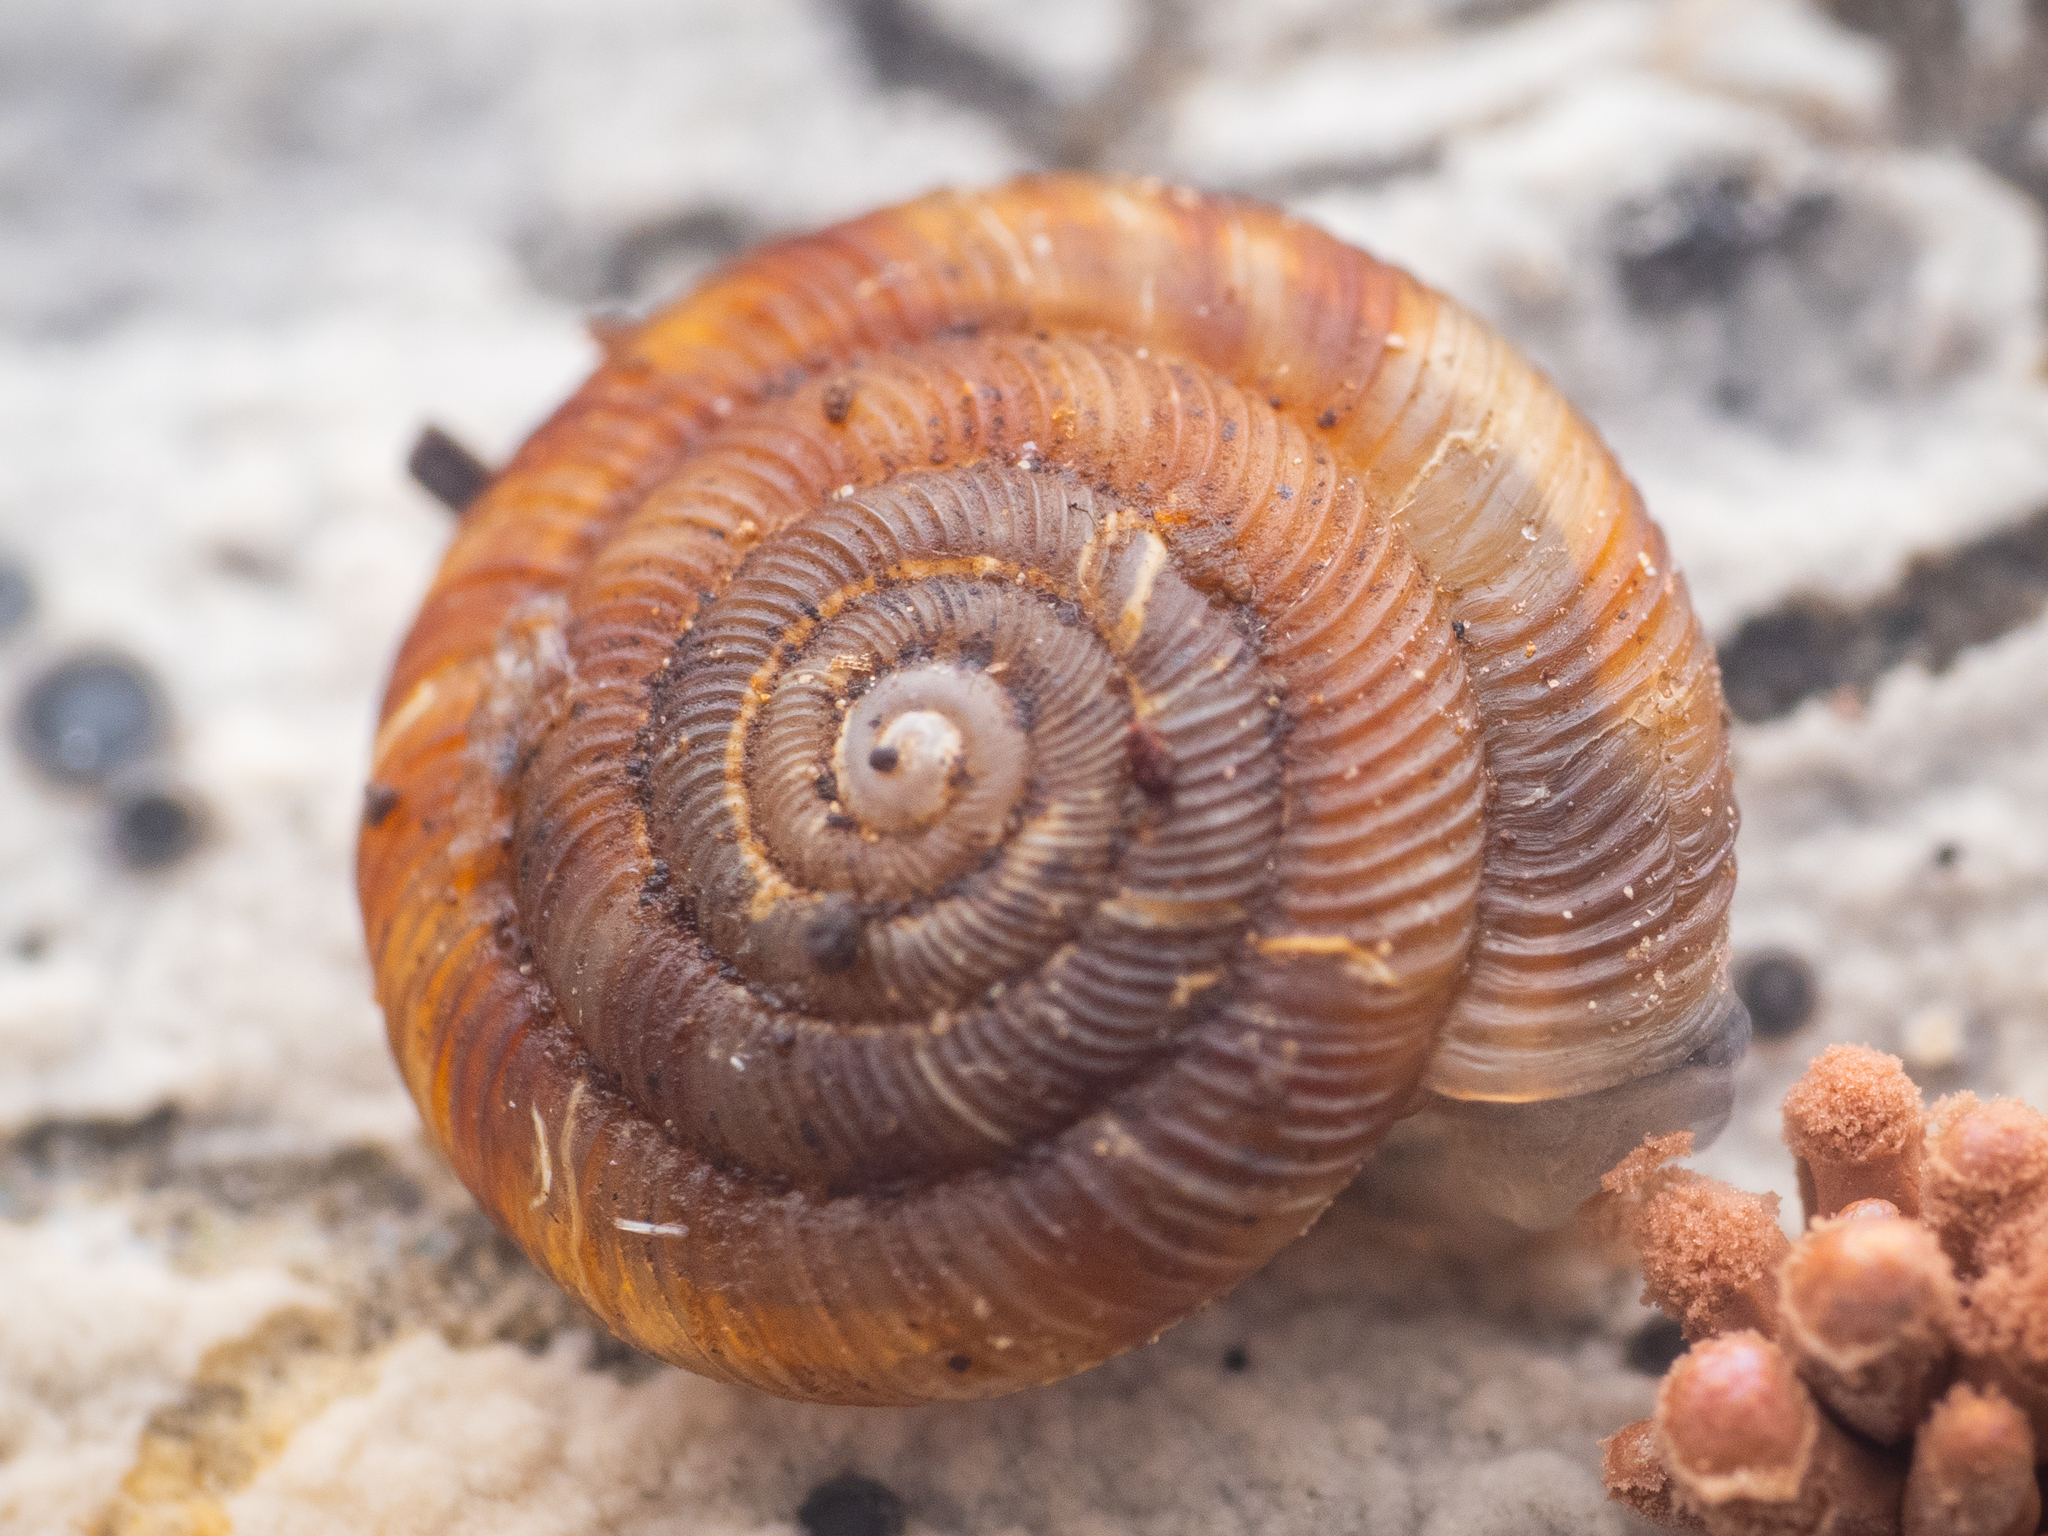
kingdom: Animalia
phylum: Mollusca
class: Gastropoda
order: Stylommatophora
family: Discidae
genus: Discus
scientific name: Discus rotundatus
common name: Rounded snail
